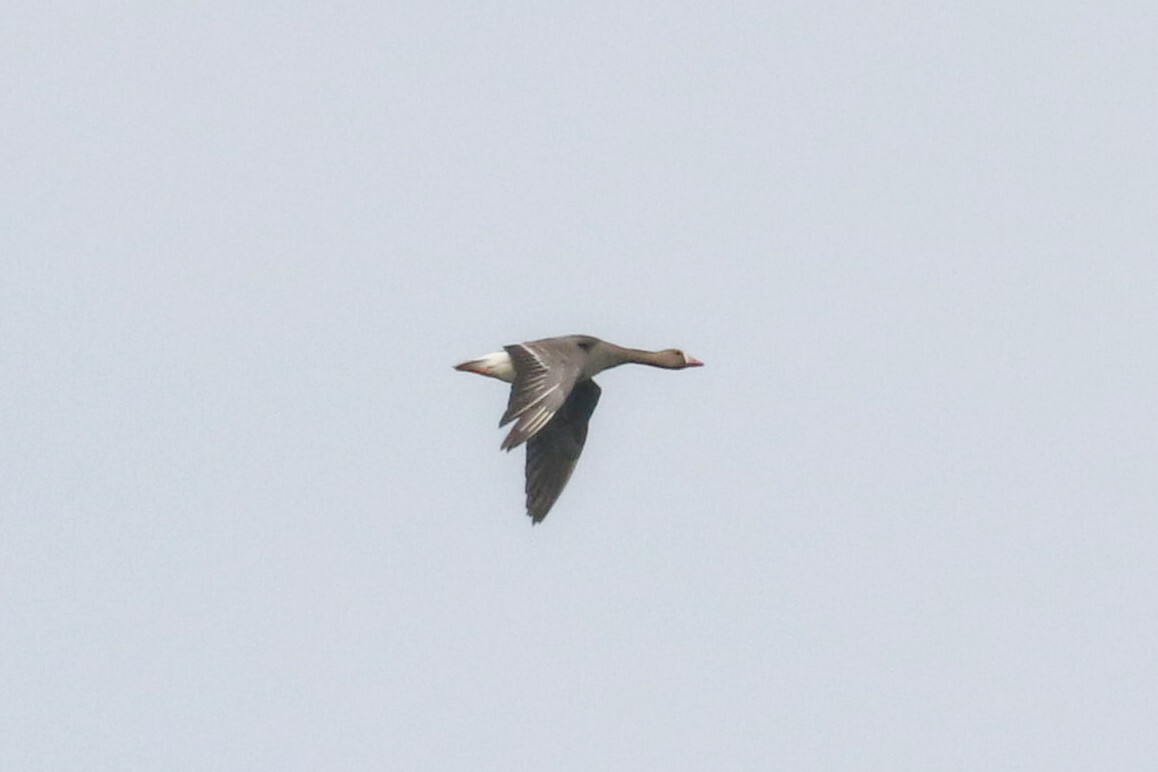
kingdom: Animalia
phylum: Chordata
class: Aves
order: Anseriformes
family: Anatidae
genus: Anser
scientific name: Anser albifrons
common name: Greater white-fronted goose
